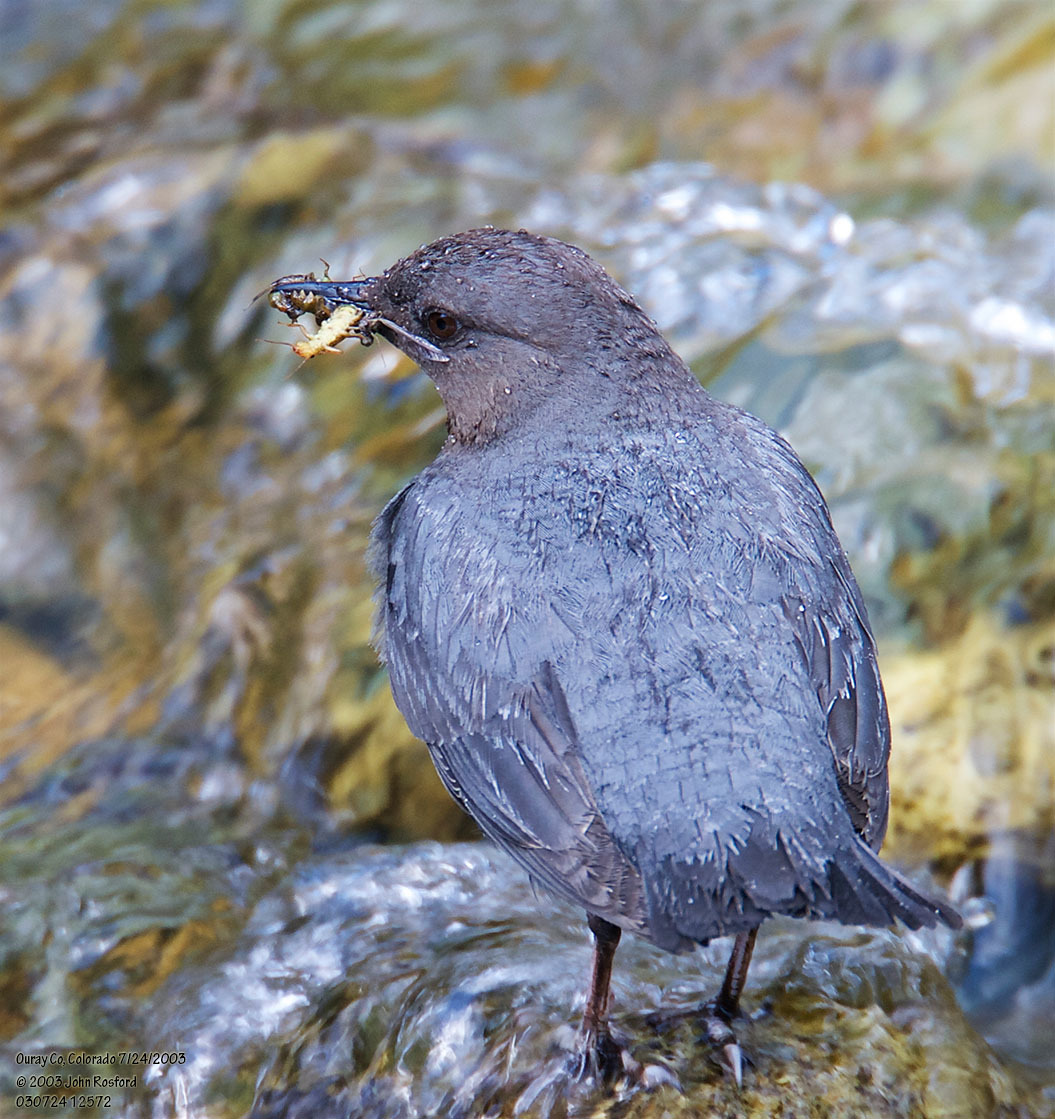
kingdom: Animalia
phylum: Chordata
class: Aves
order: Passeriformes
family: Cinclidae
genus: Cinclus
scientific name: Cinclus mexicanus
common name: American dipper
